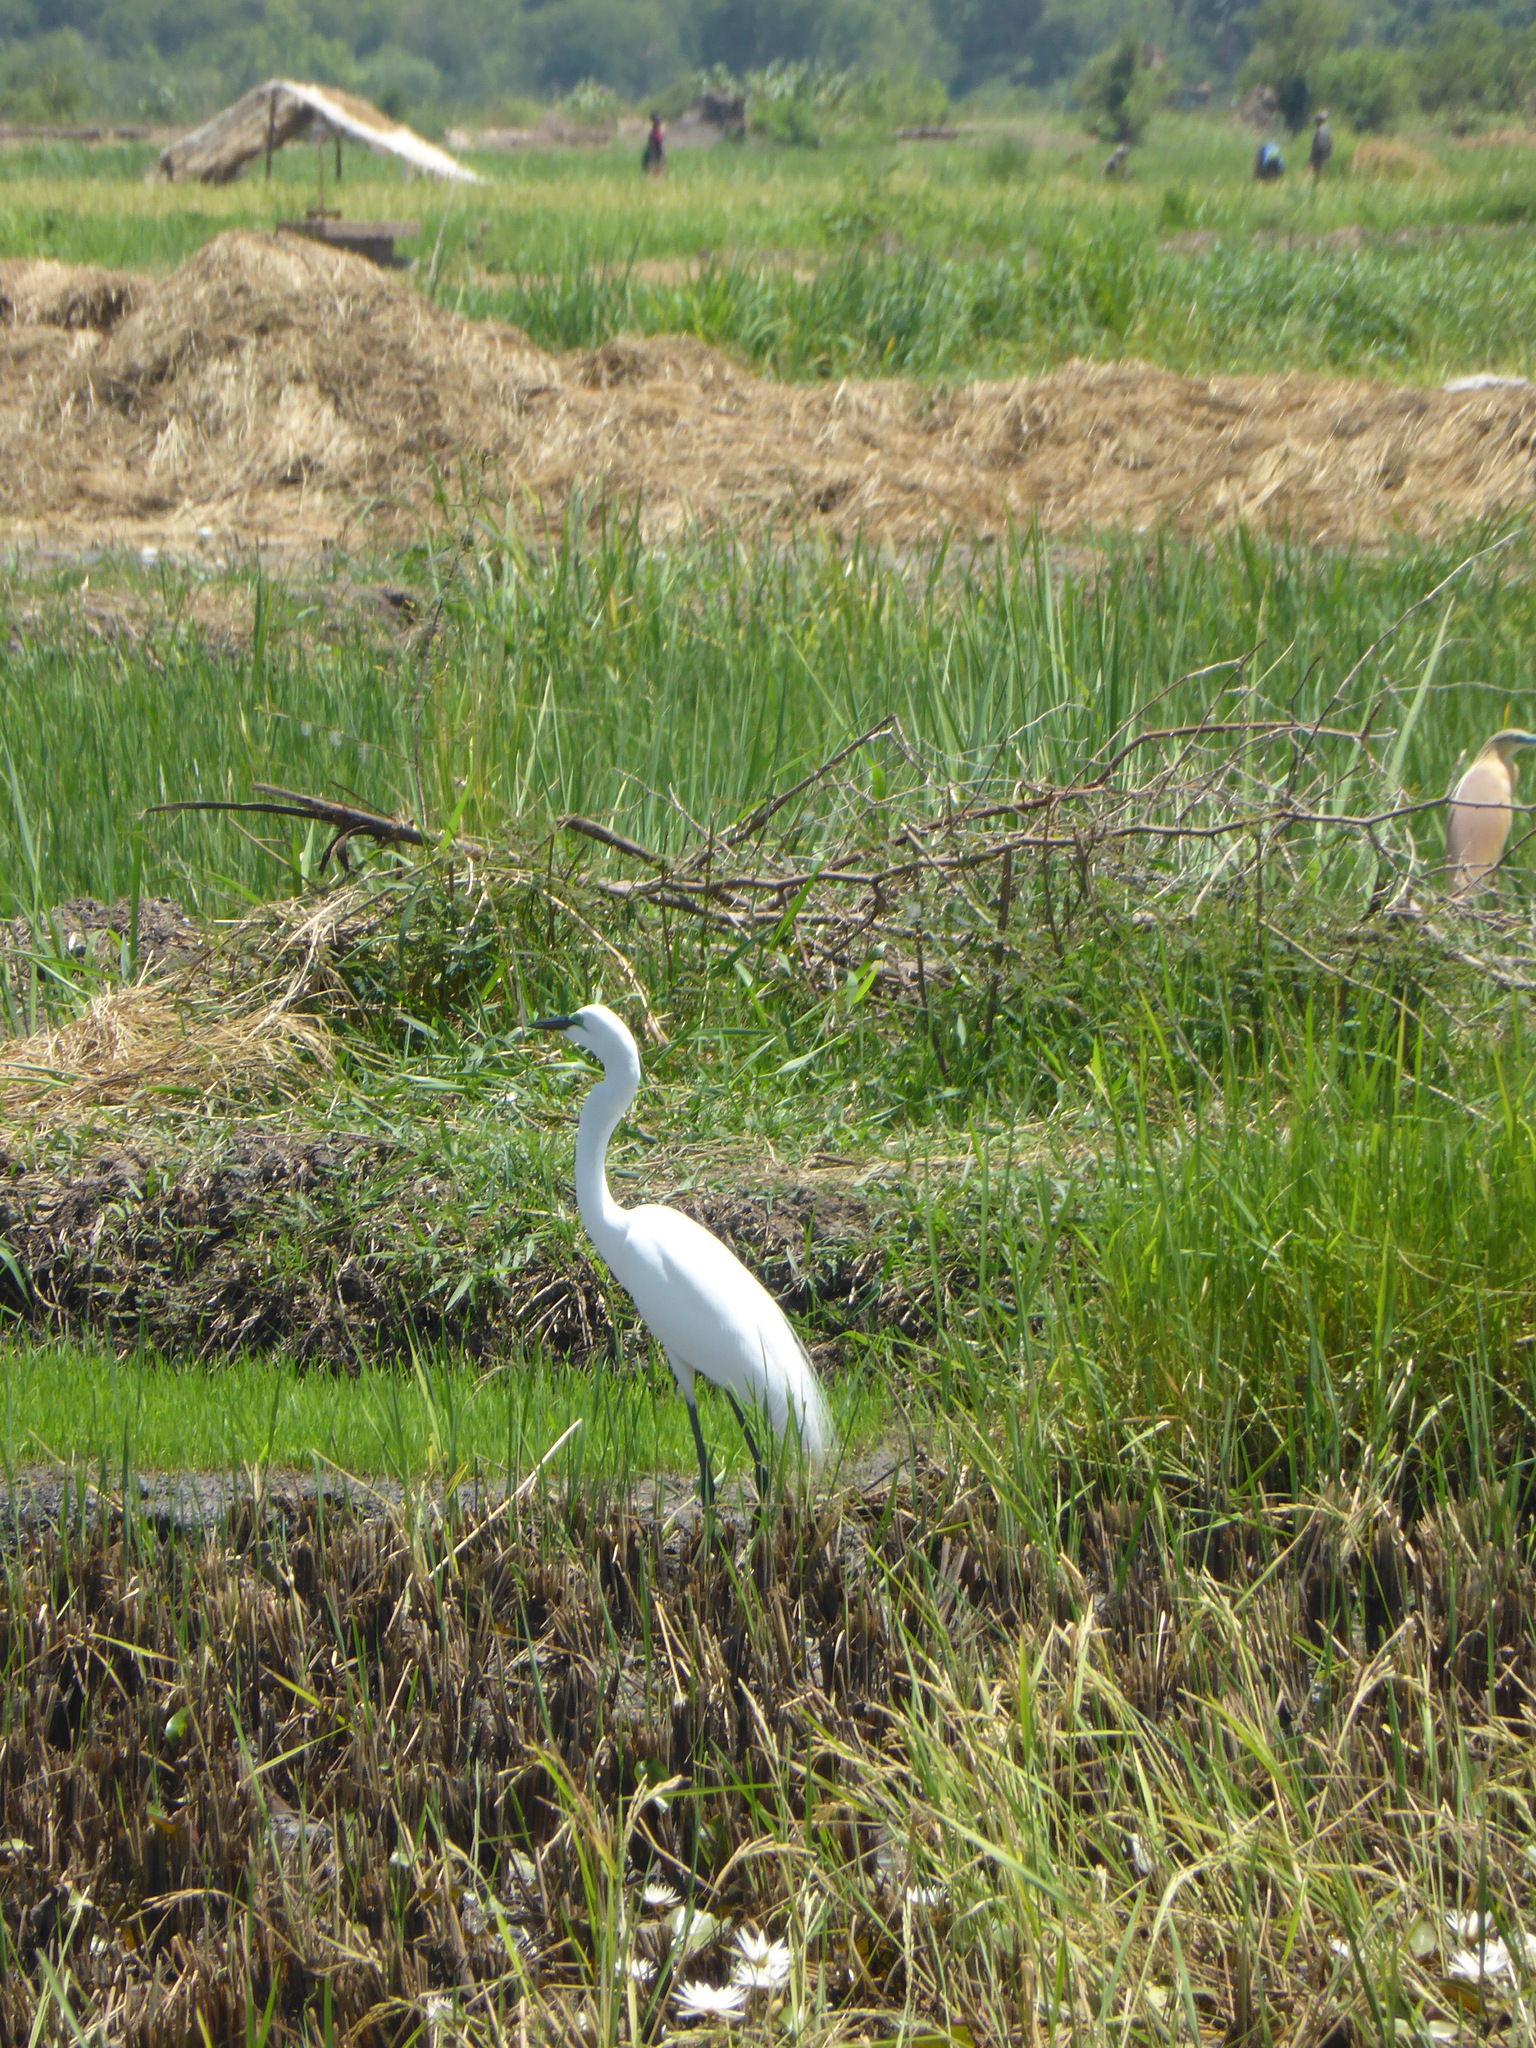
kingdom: Animalia
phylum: Chordata
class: Aves
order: Pelecaniformes
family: Ardeidae
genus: Ardea
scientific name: Ardea alba
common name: Great egret
